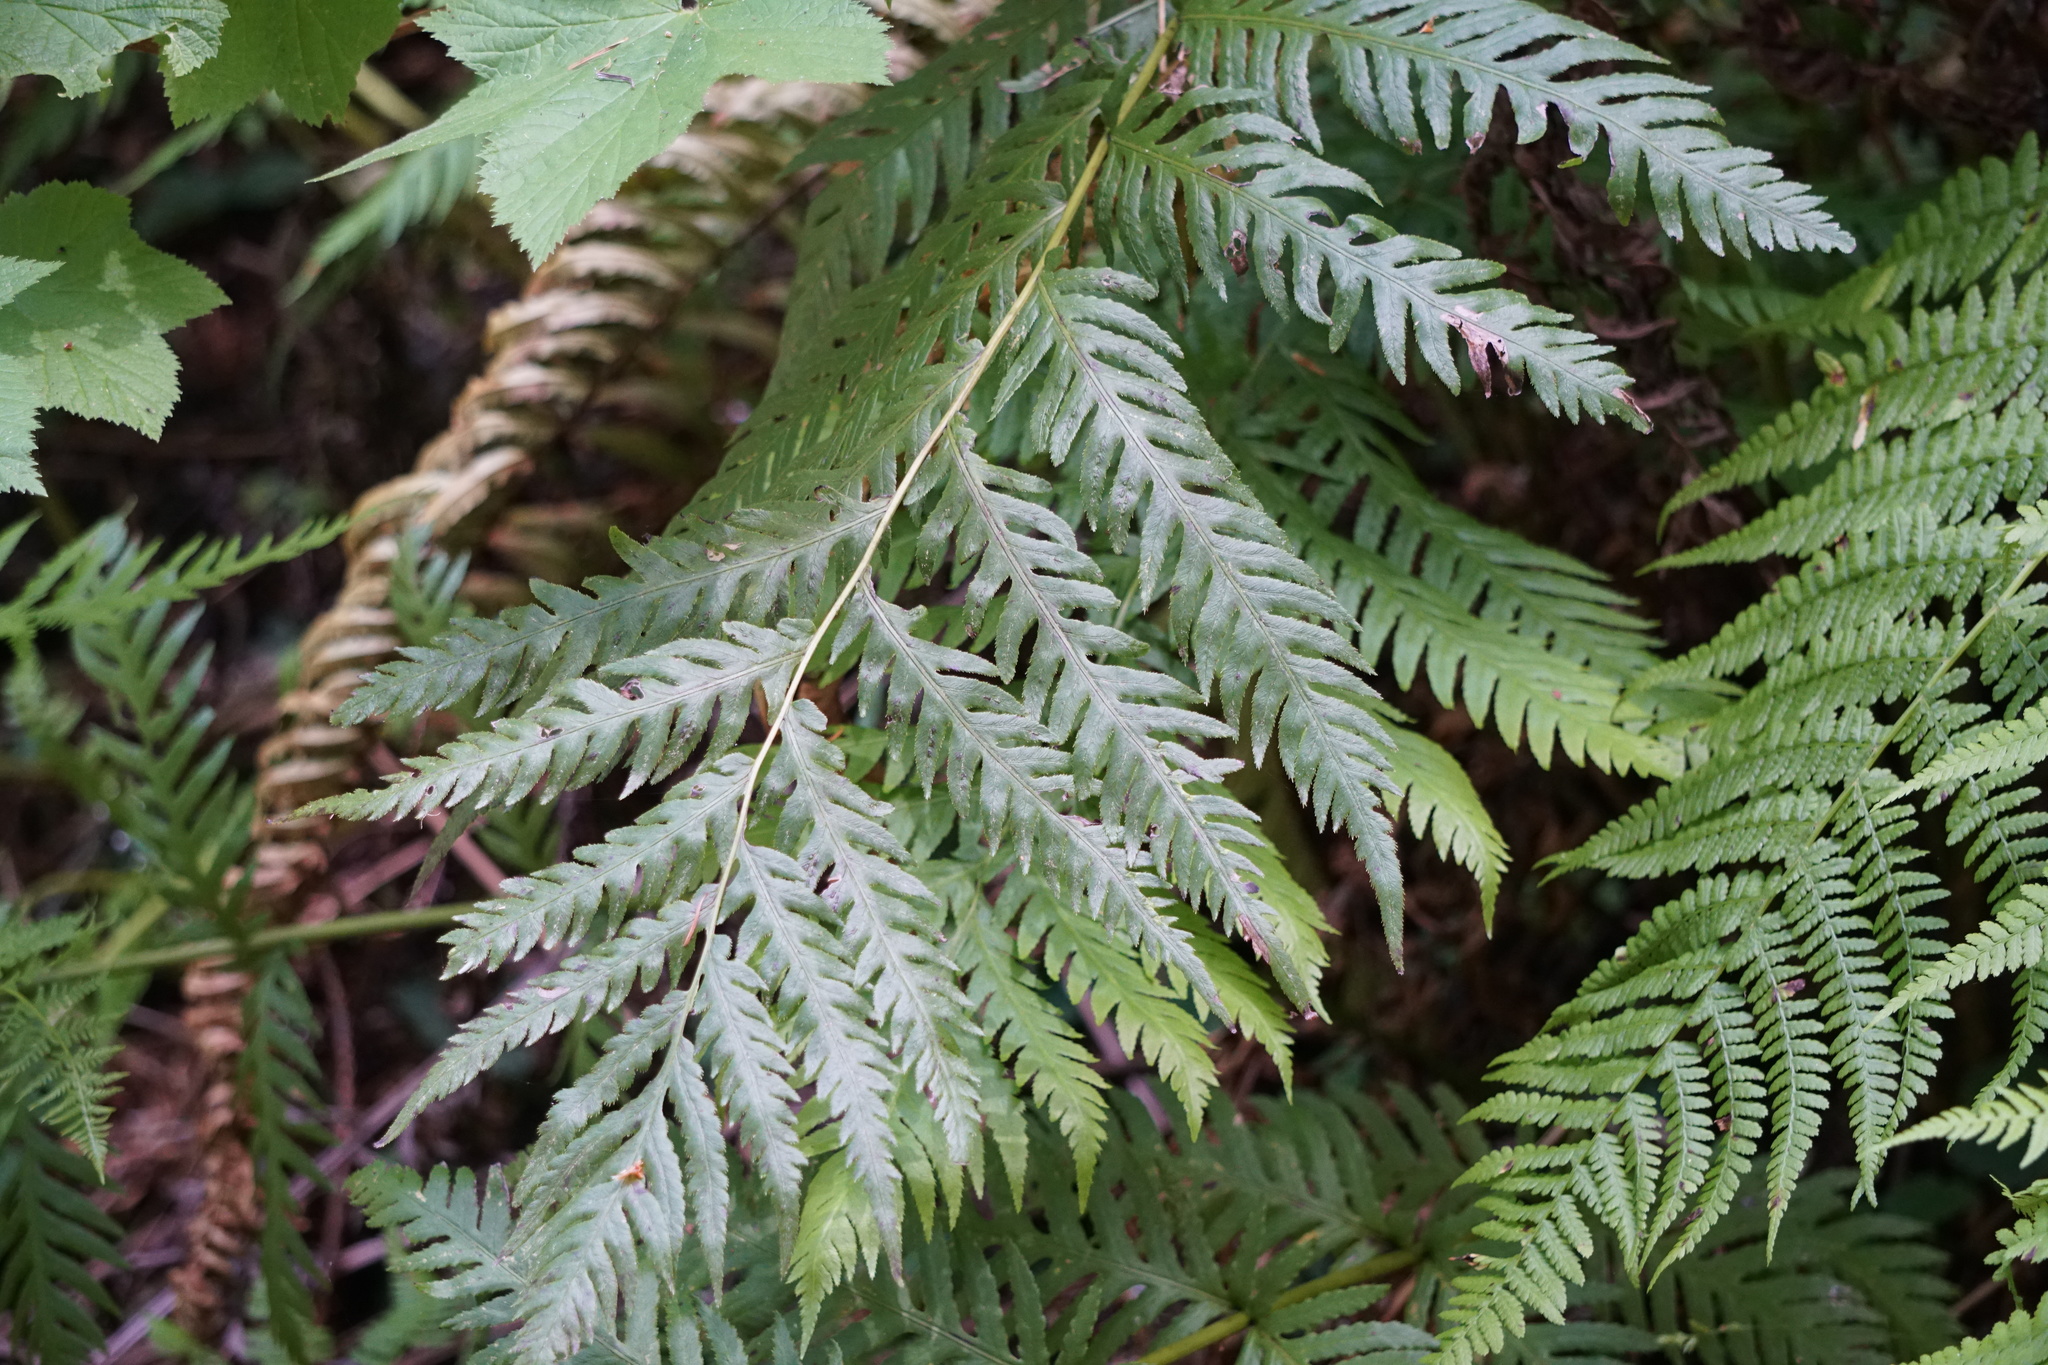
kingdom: Plantae
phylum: Tracheophyta
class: Polypodiopsida
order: Polypodiales
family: Blechnaceae
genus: Woodwardia
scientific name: Woodwardia fimbriata
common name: Giant chain fern
